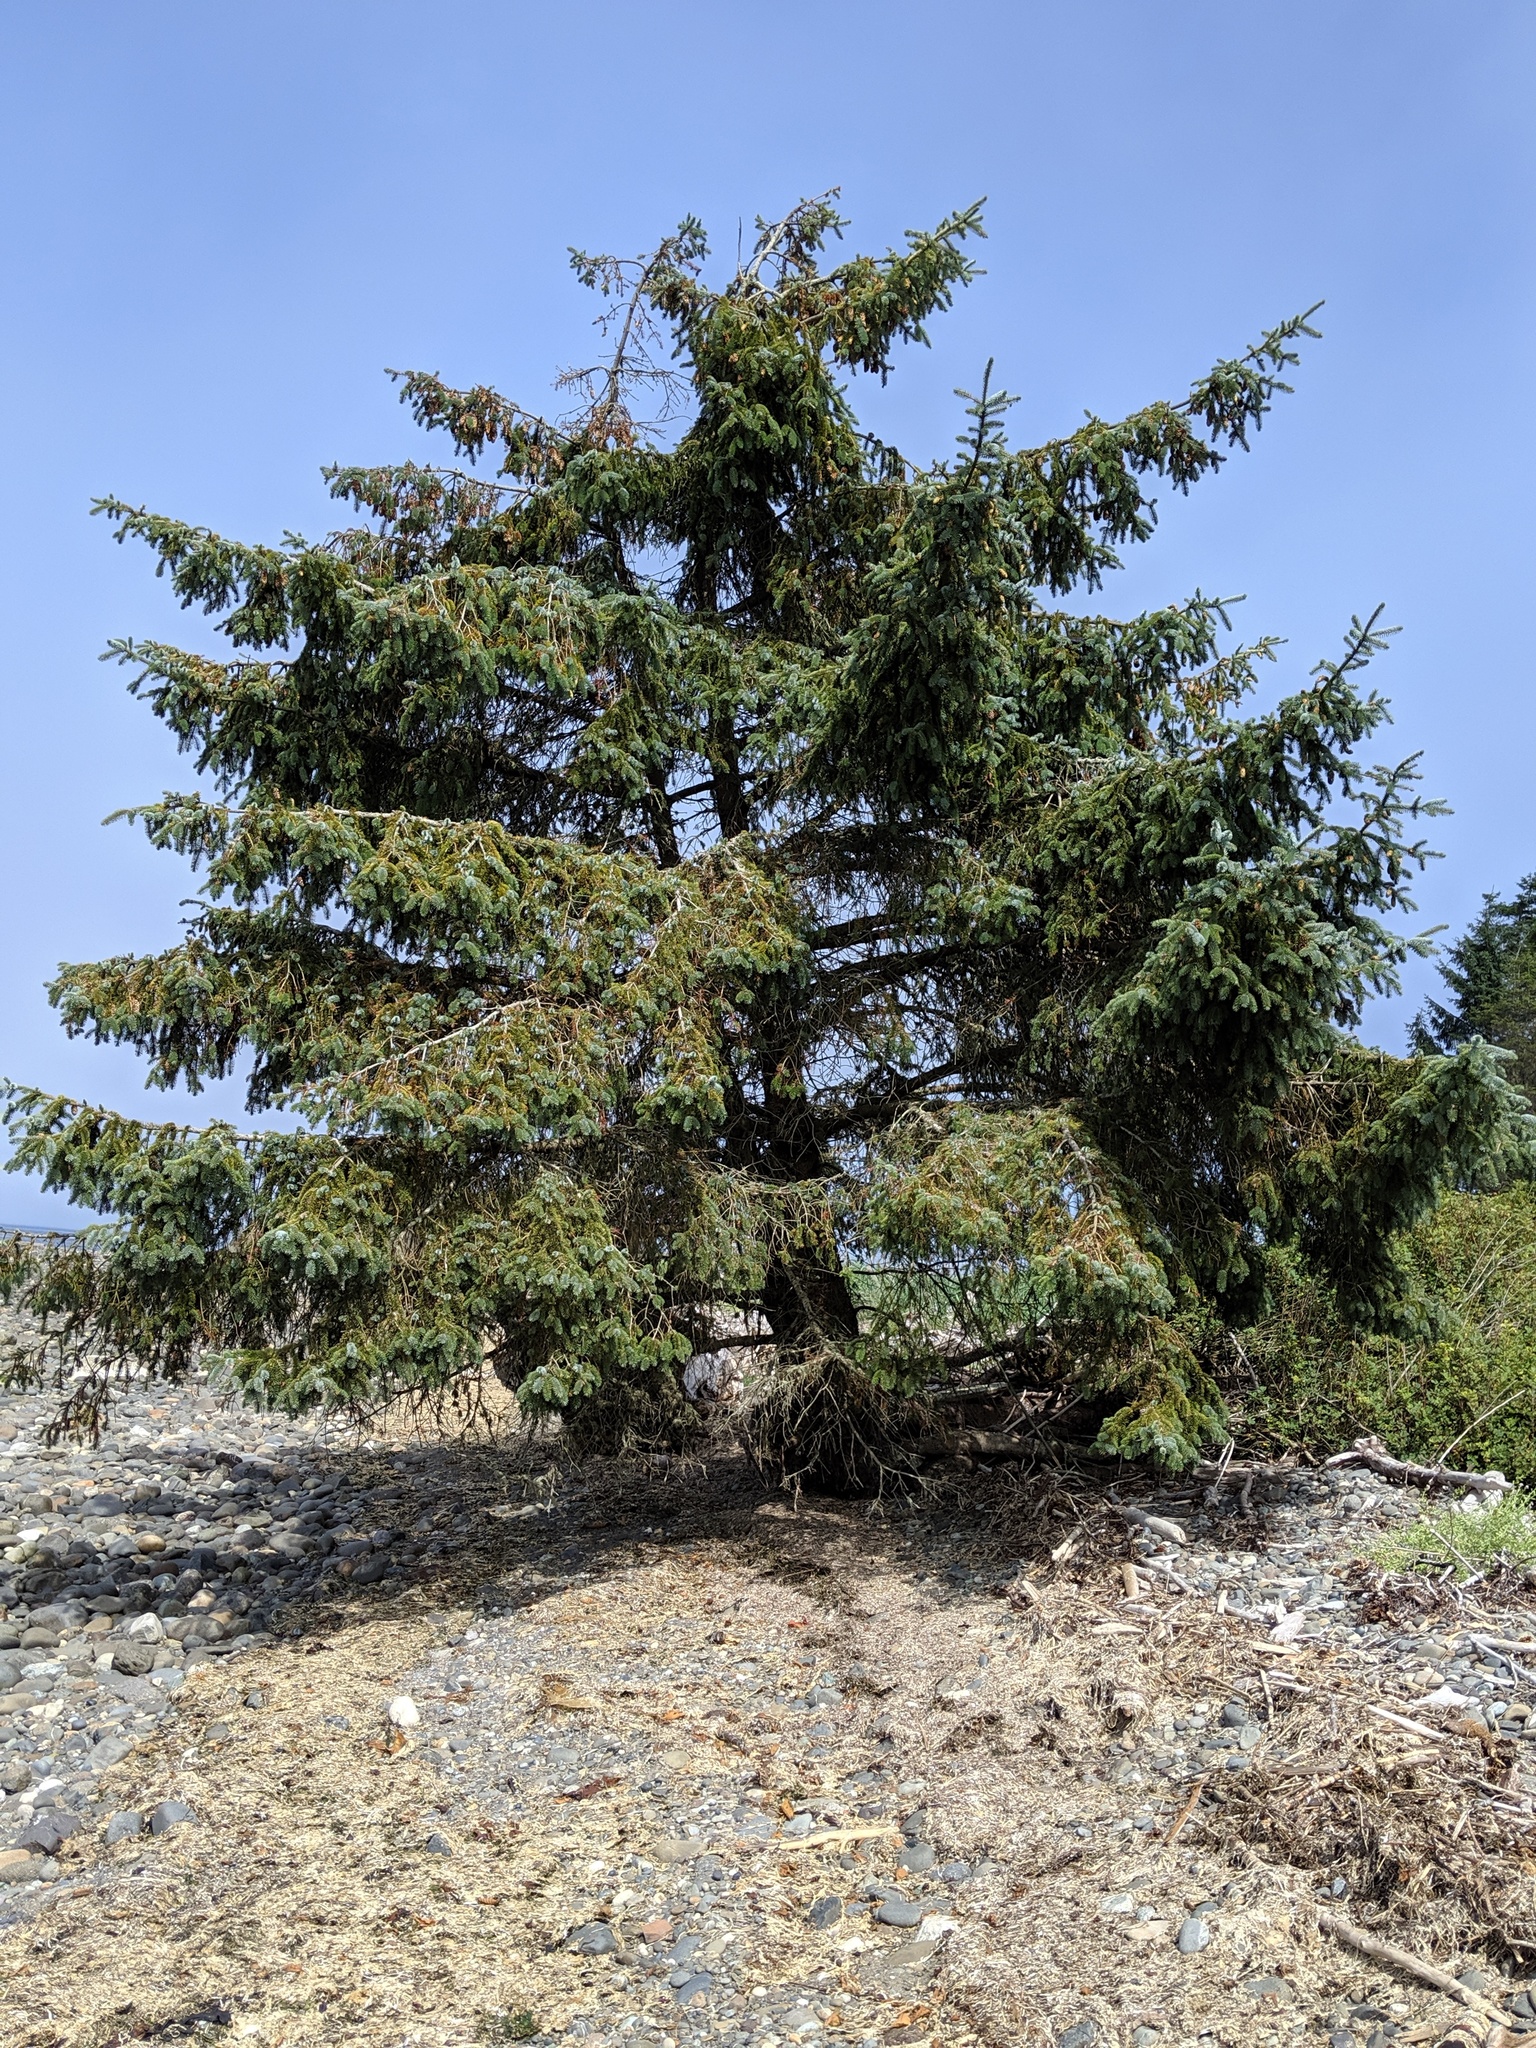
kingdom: Plantae
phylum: Tracheophyta
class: Pinopsida
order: Pinales
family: Pinaceae
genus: Picea
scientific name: Picea sitchensis
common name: Sitka spruce
